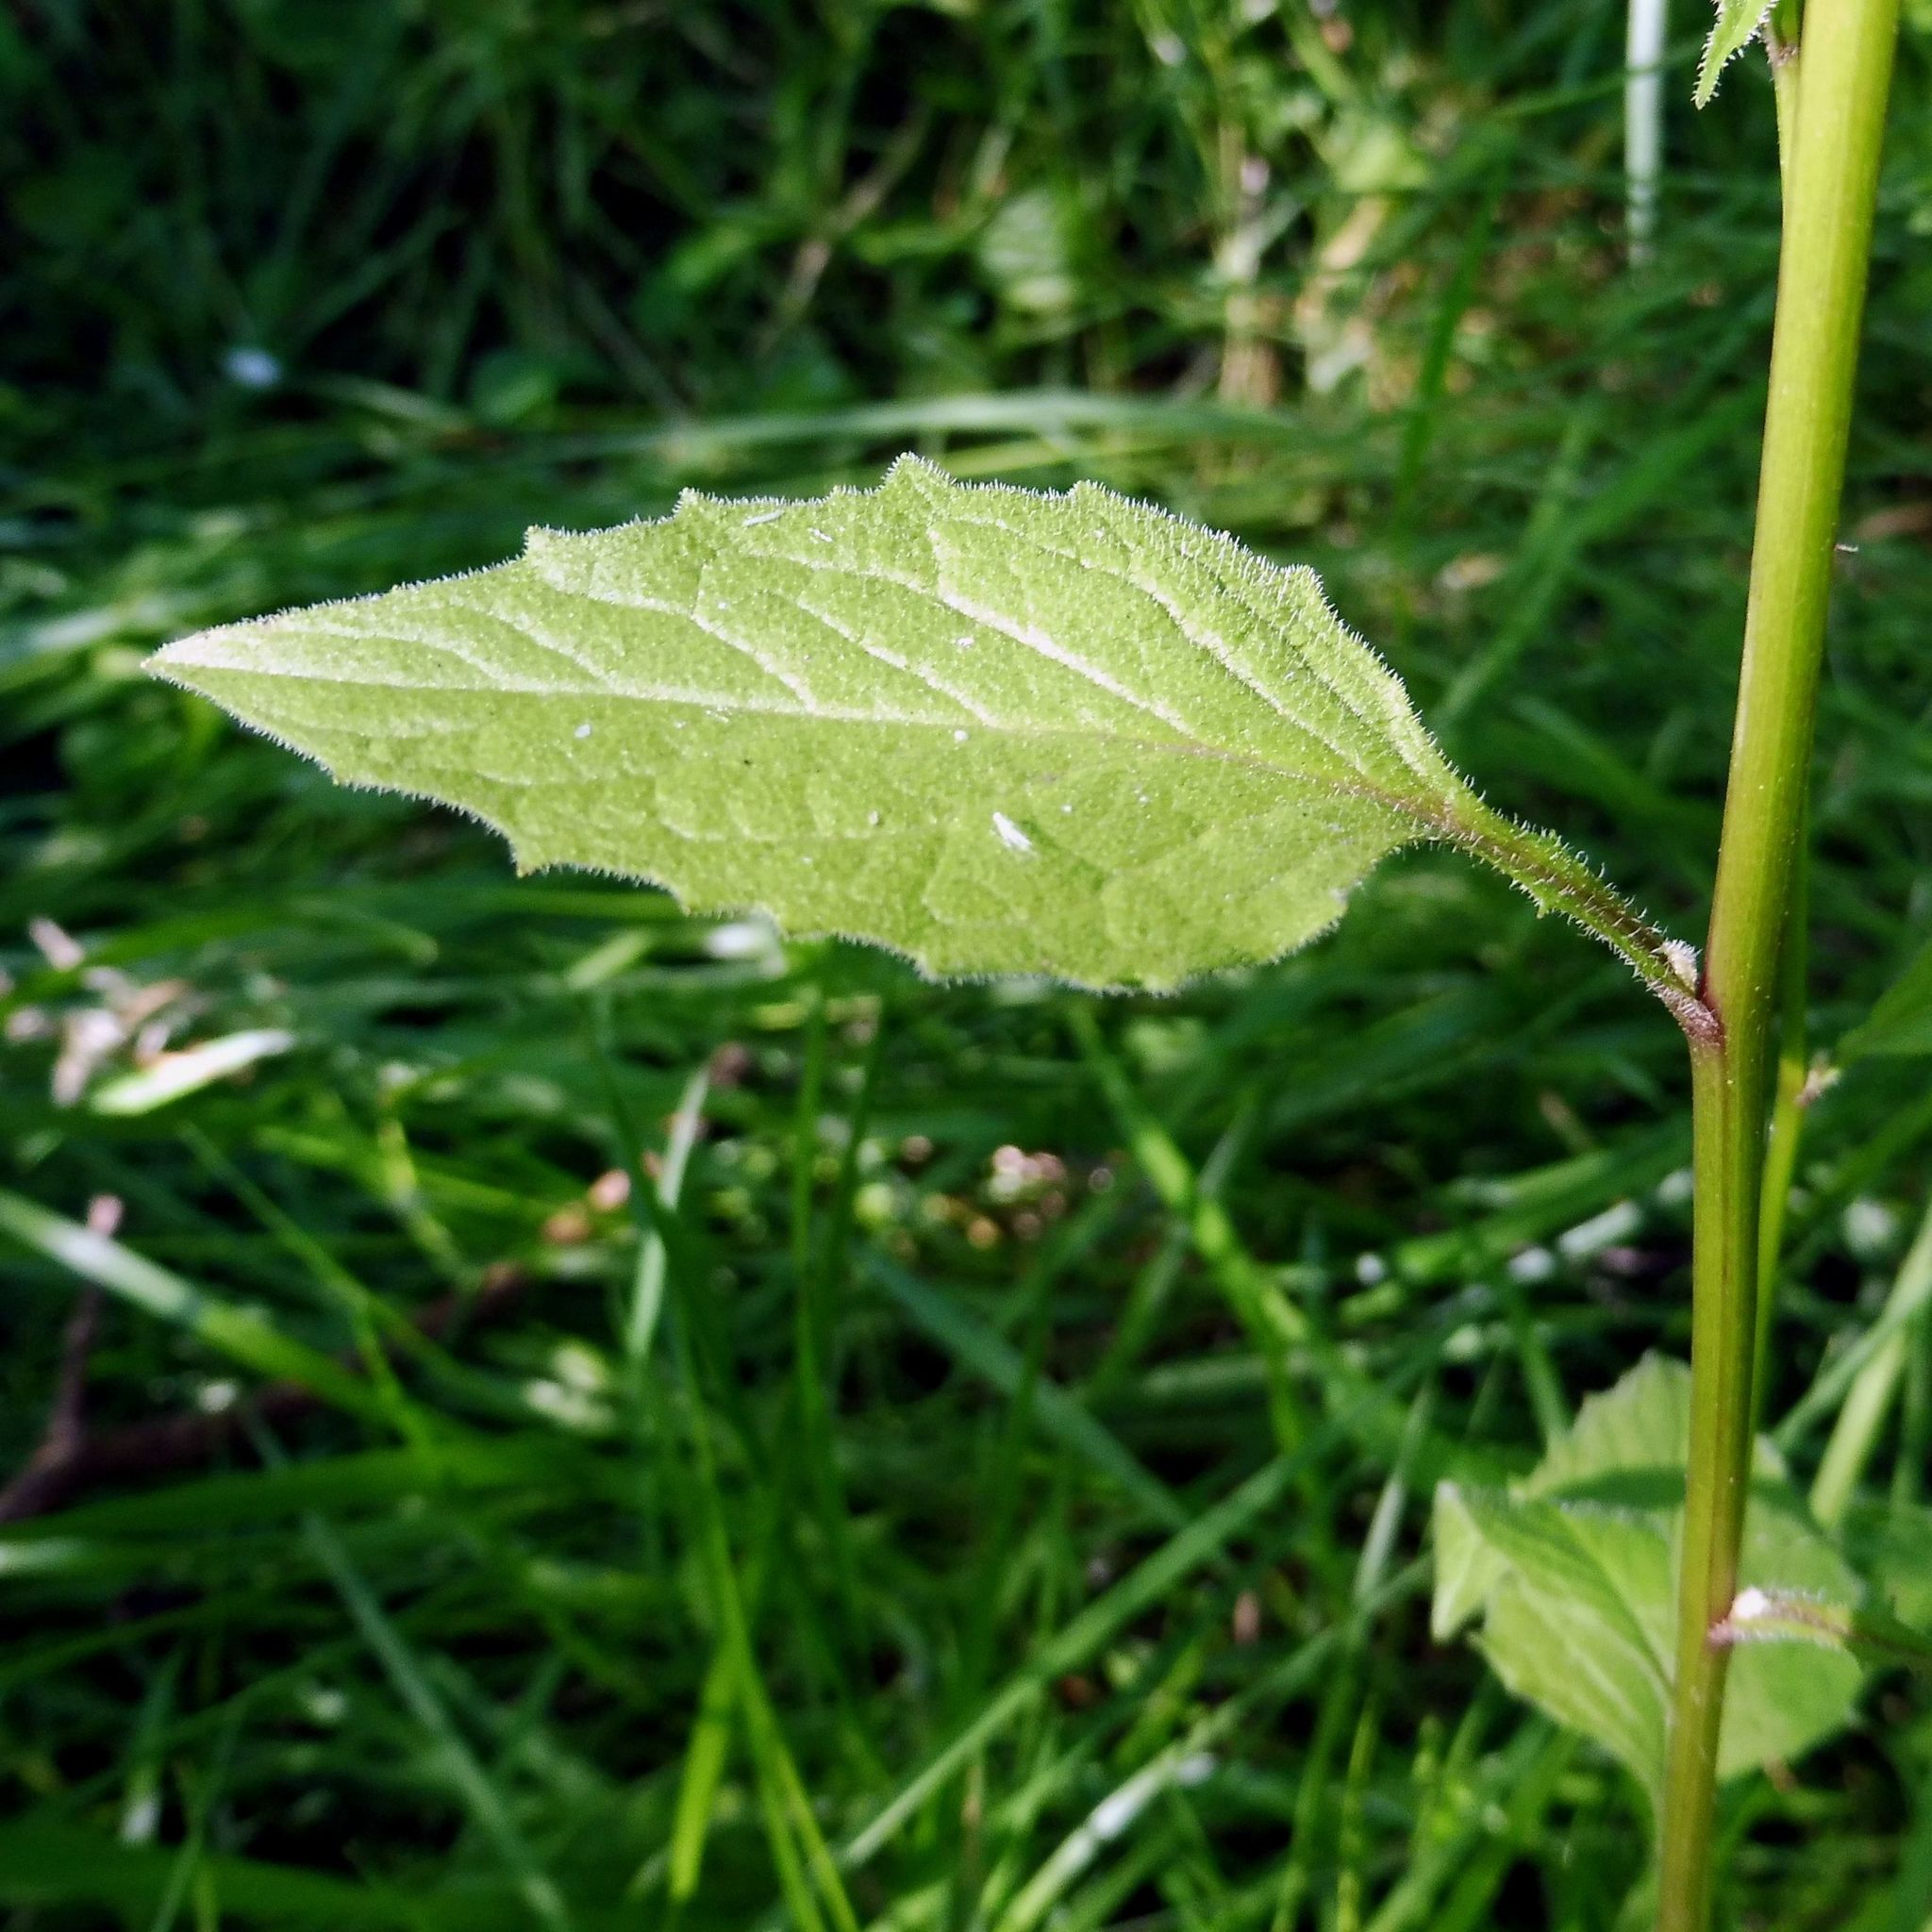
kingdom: Plantae
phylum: Tracheophyta
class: Magnoliopsida
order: Asterales
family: Asteraceae
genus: Lapsana
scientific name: Lapsana communis
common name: Nipplewort
